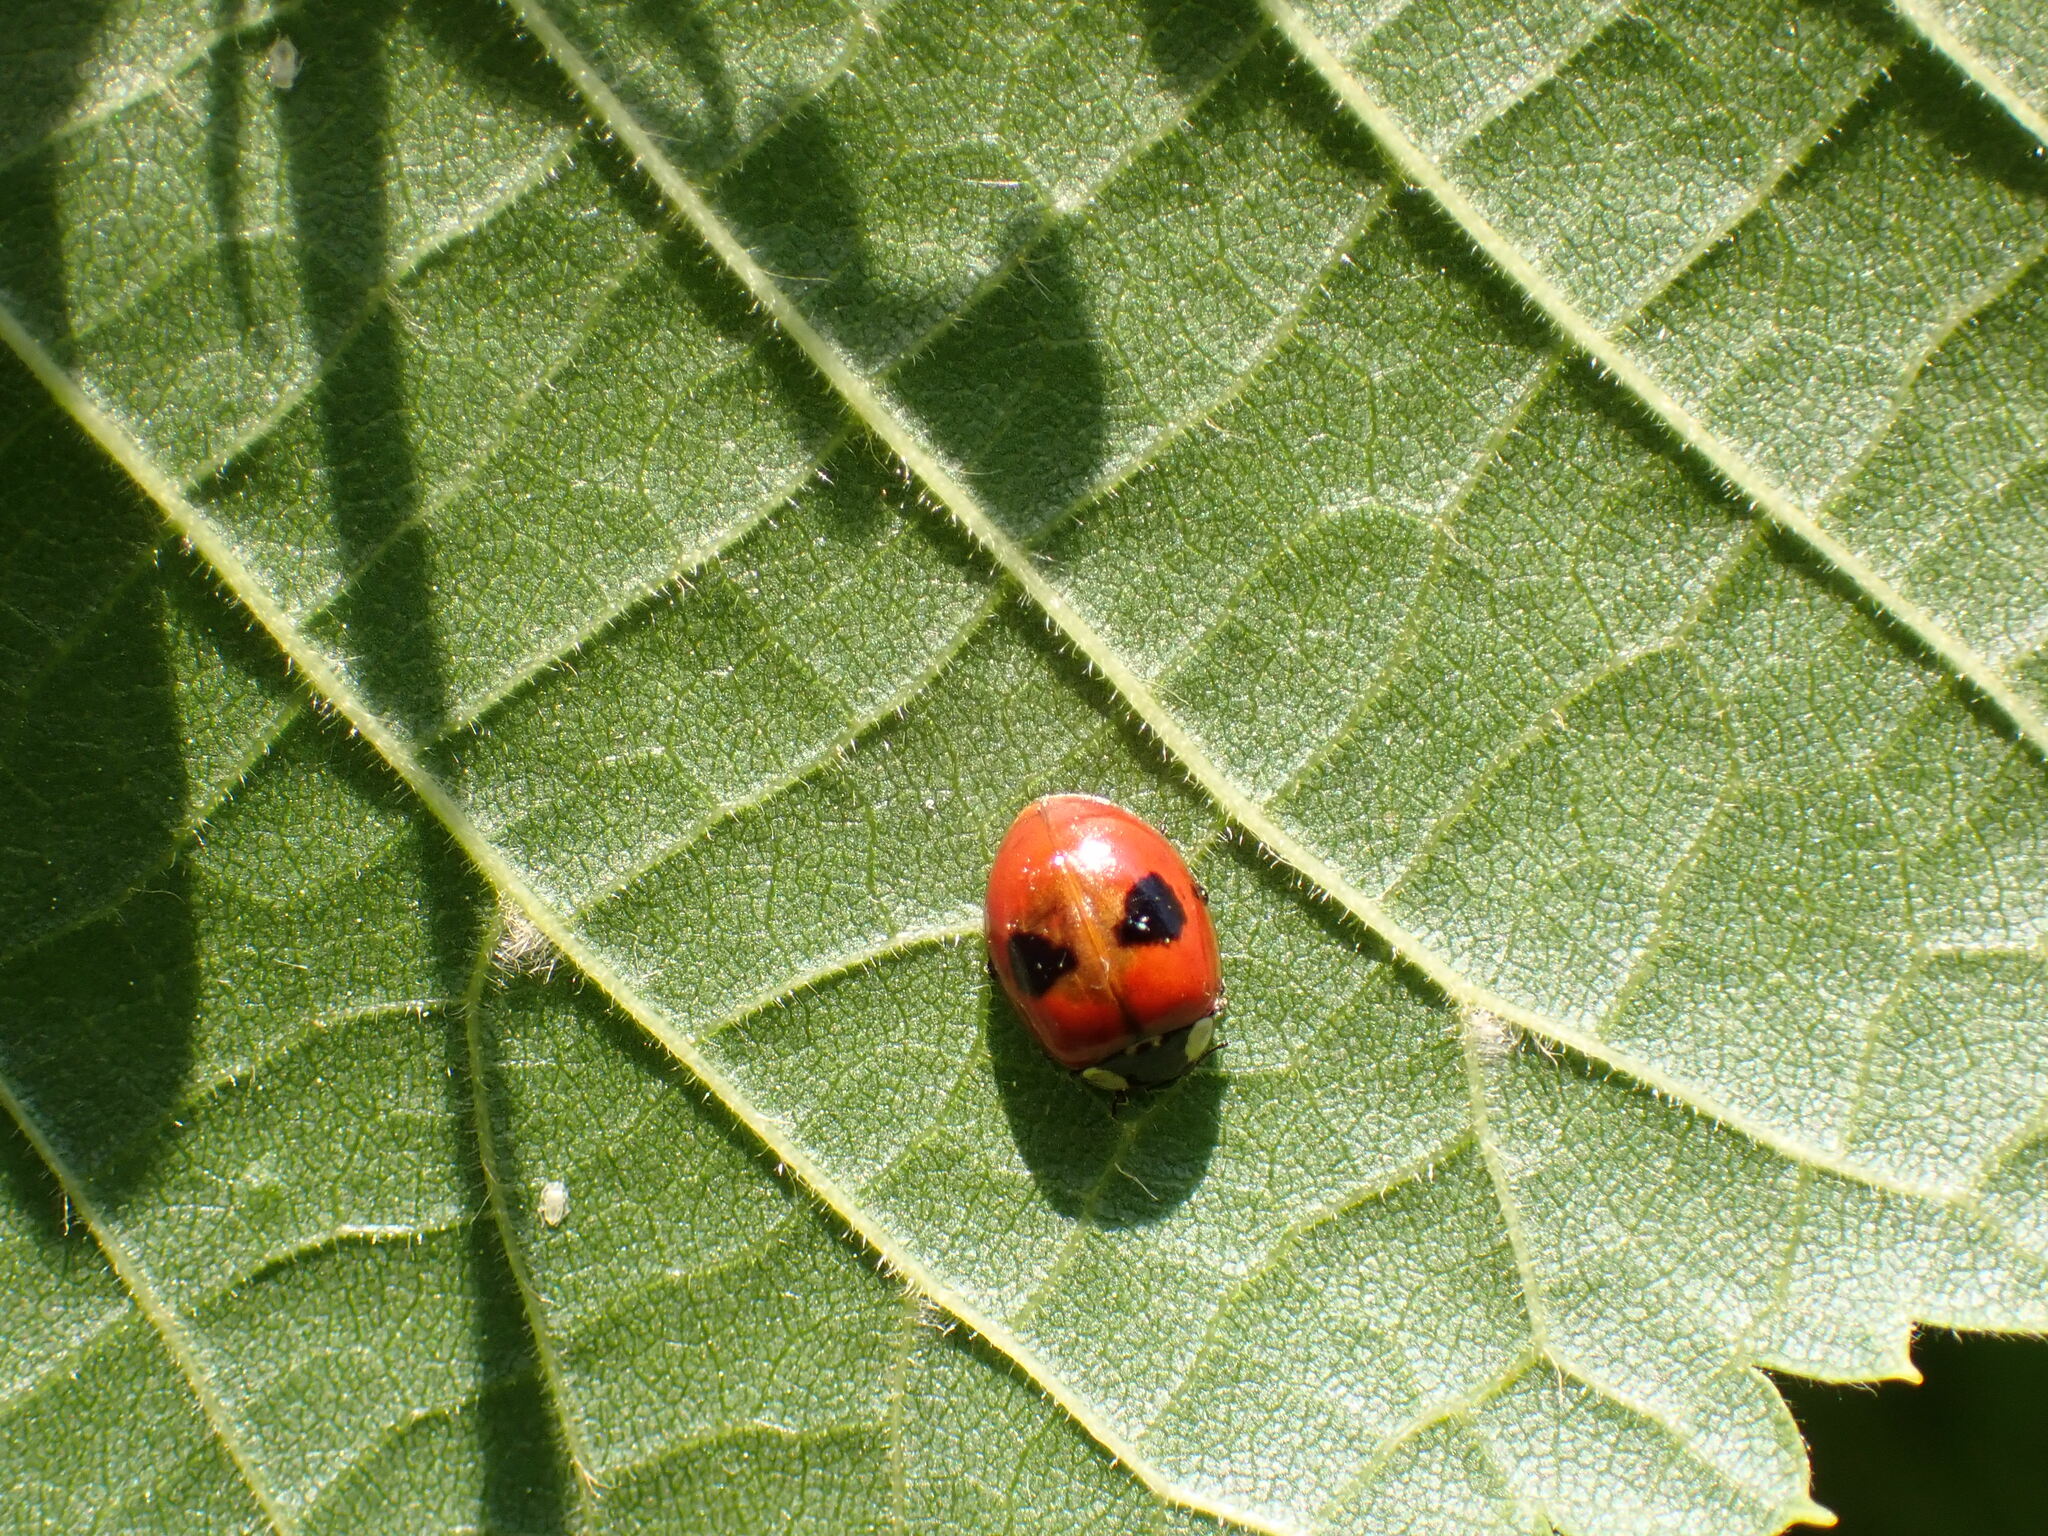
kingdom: Animalia
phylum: Arthropoda
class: Insecta
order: Coleoptera
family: Coccinellidae
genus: Adalia
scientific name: Adalia bipunctata
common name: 2-spot ladybird
